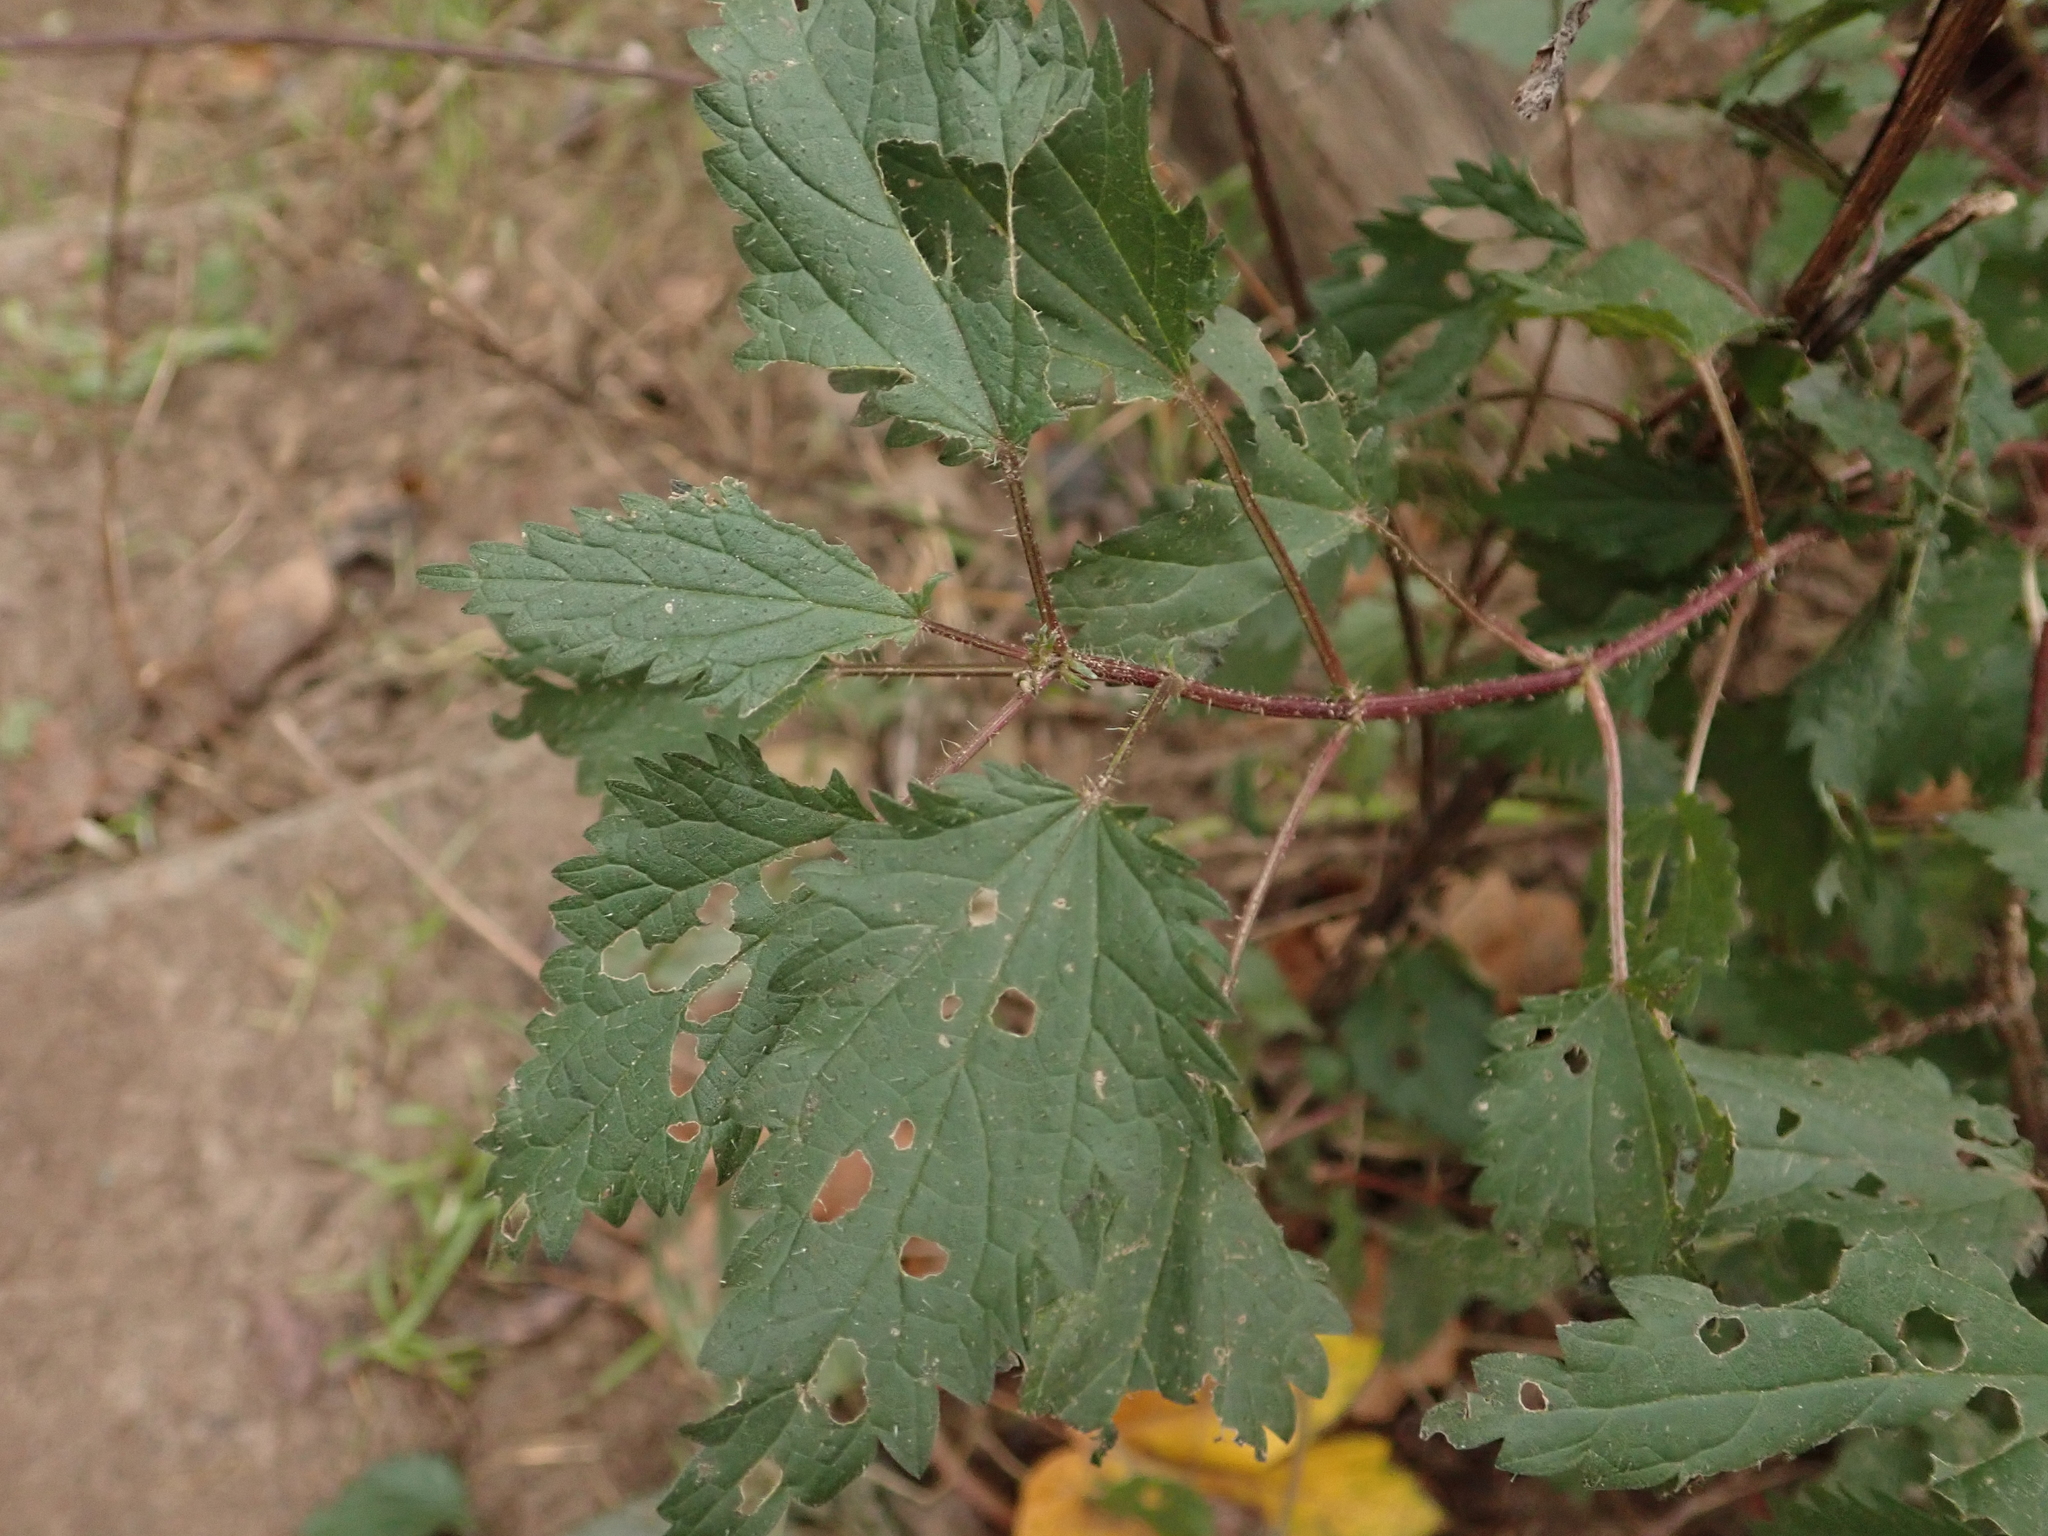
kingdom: Plantae
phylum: Tracheophyta
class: Magnoliopsida
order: Rosales
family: Urticaceae
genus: Urtica
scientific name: Urtica dioica
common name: Common nettle
